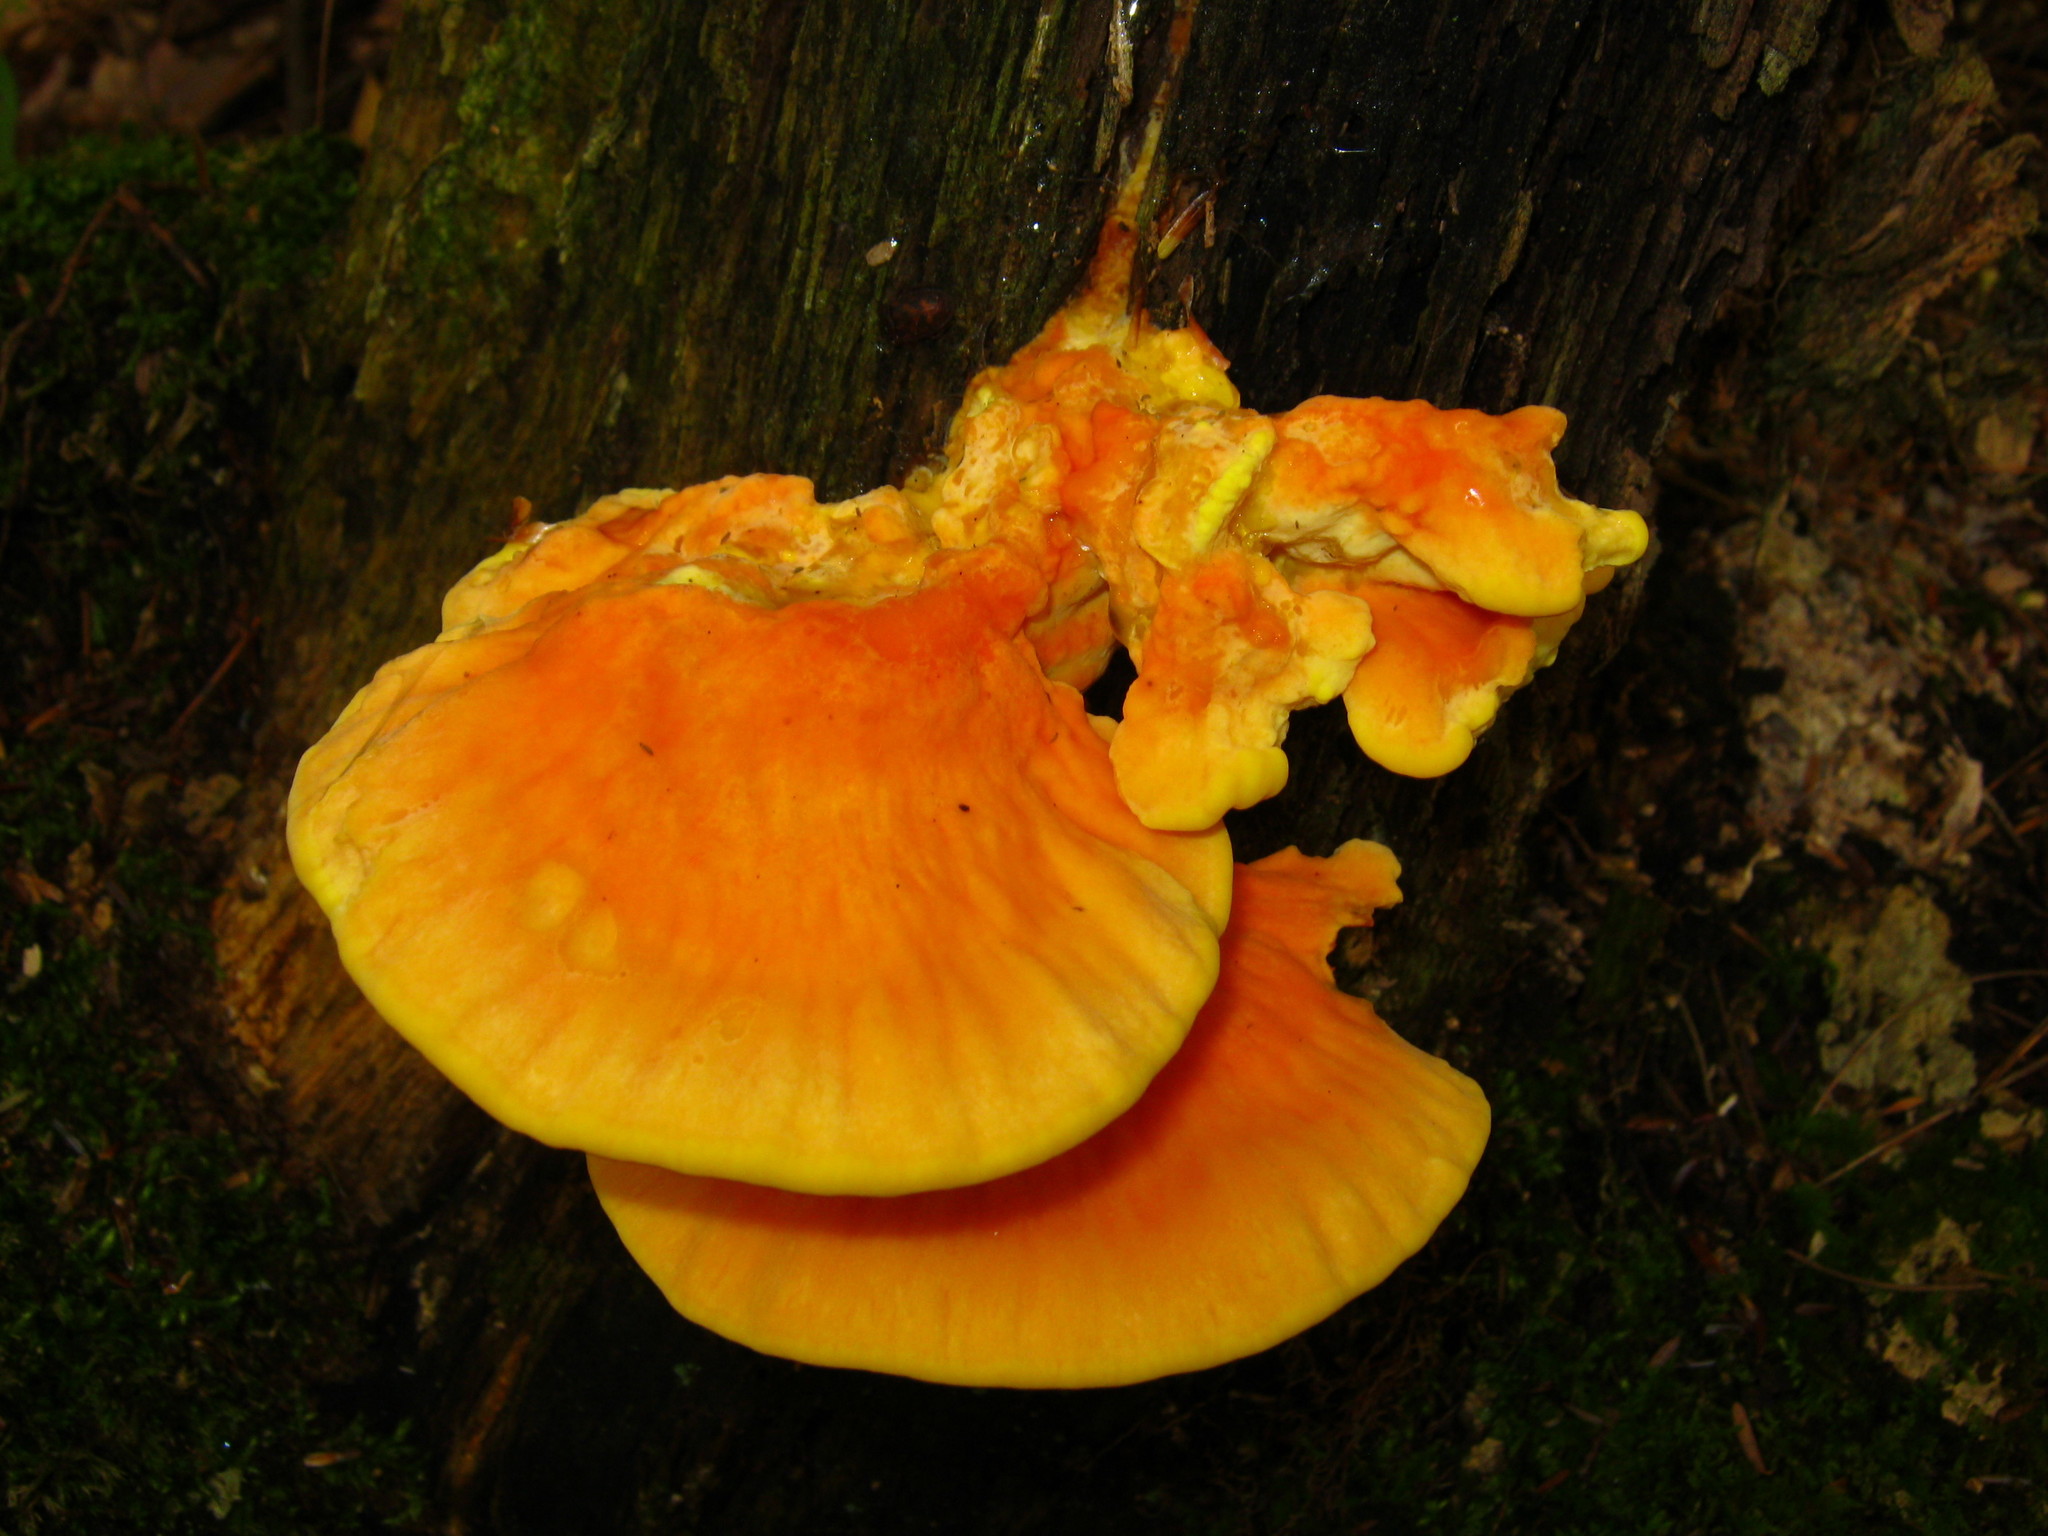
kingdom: Fungi
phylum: Basidiomycota
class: Agaricomycetes
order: Polyporales
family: Laetiporaceae
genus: Laetiporus
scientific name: Laetiporus sulphureus
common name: Chicken of the woods
